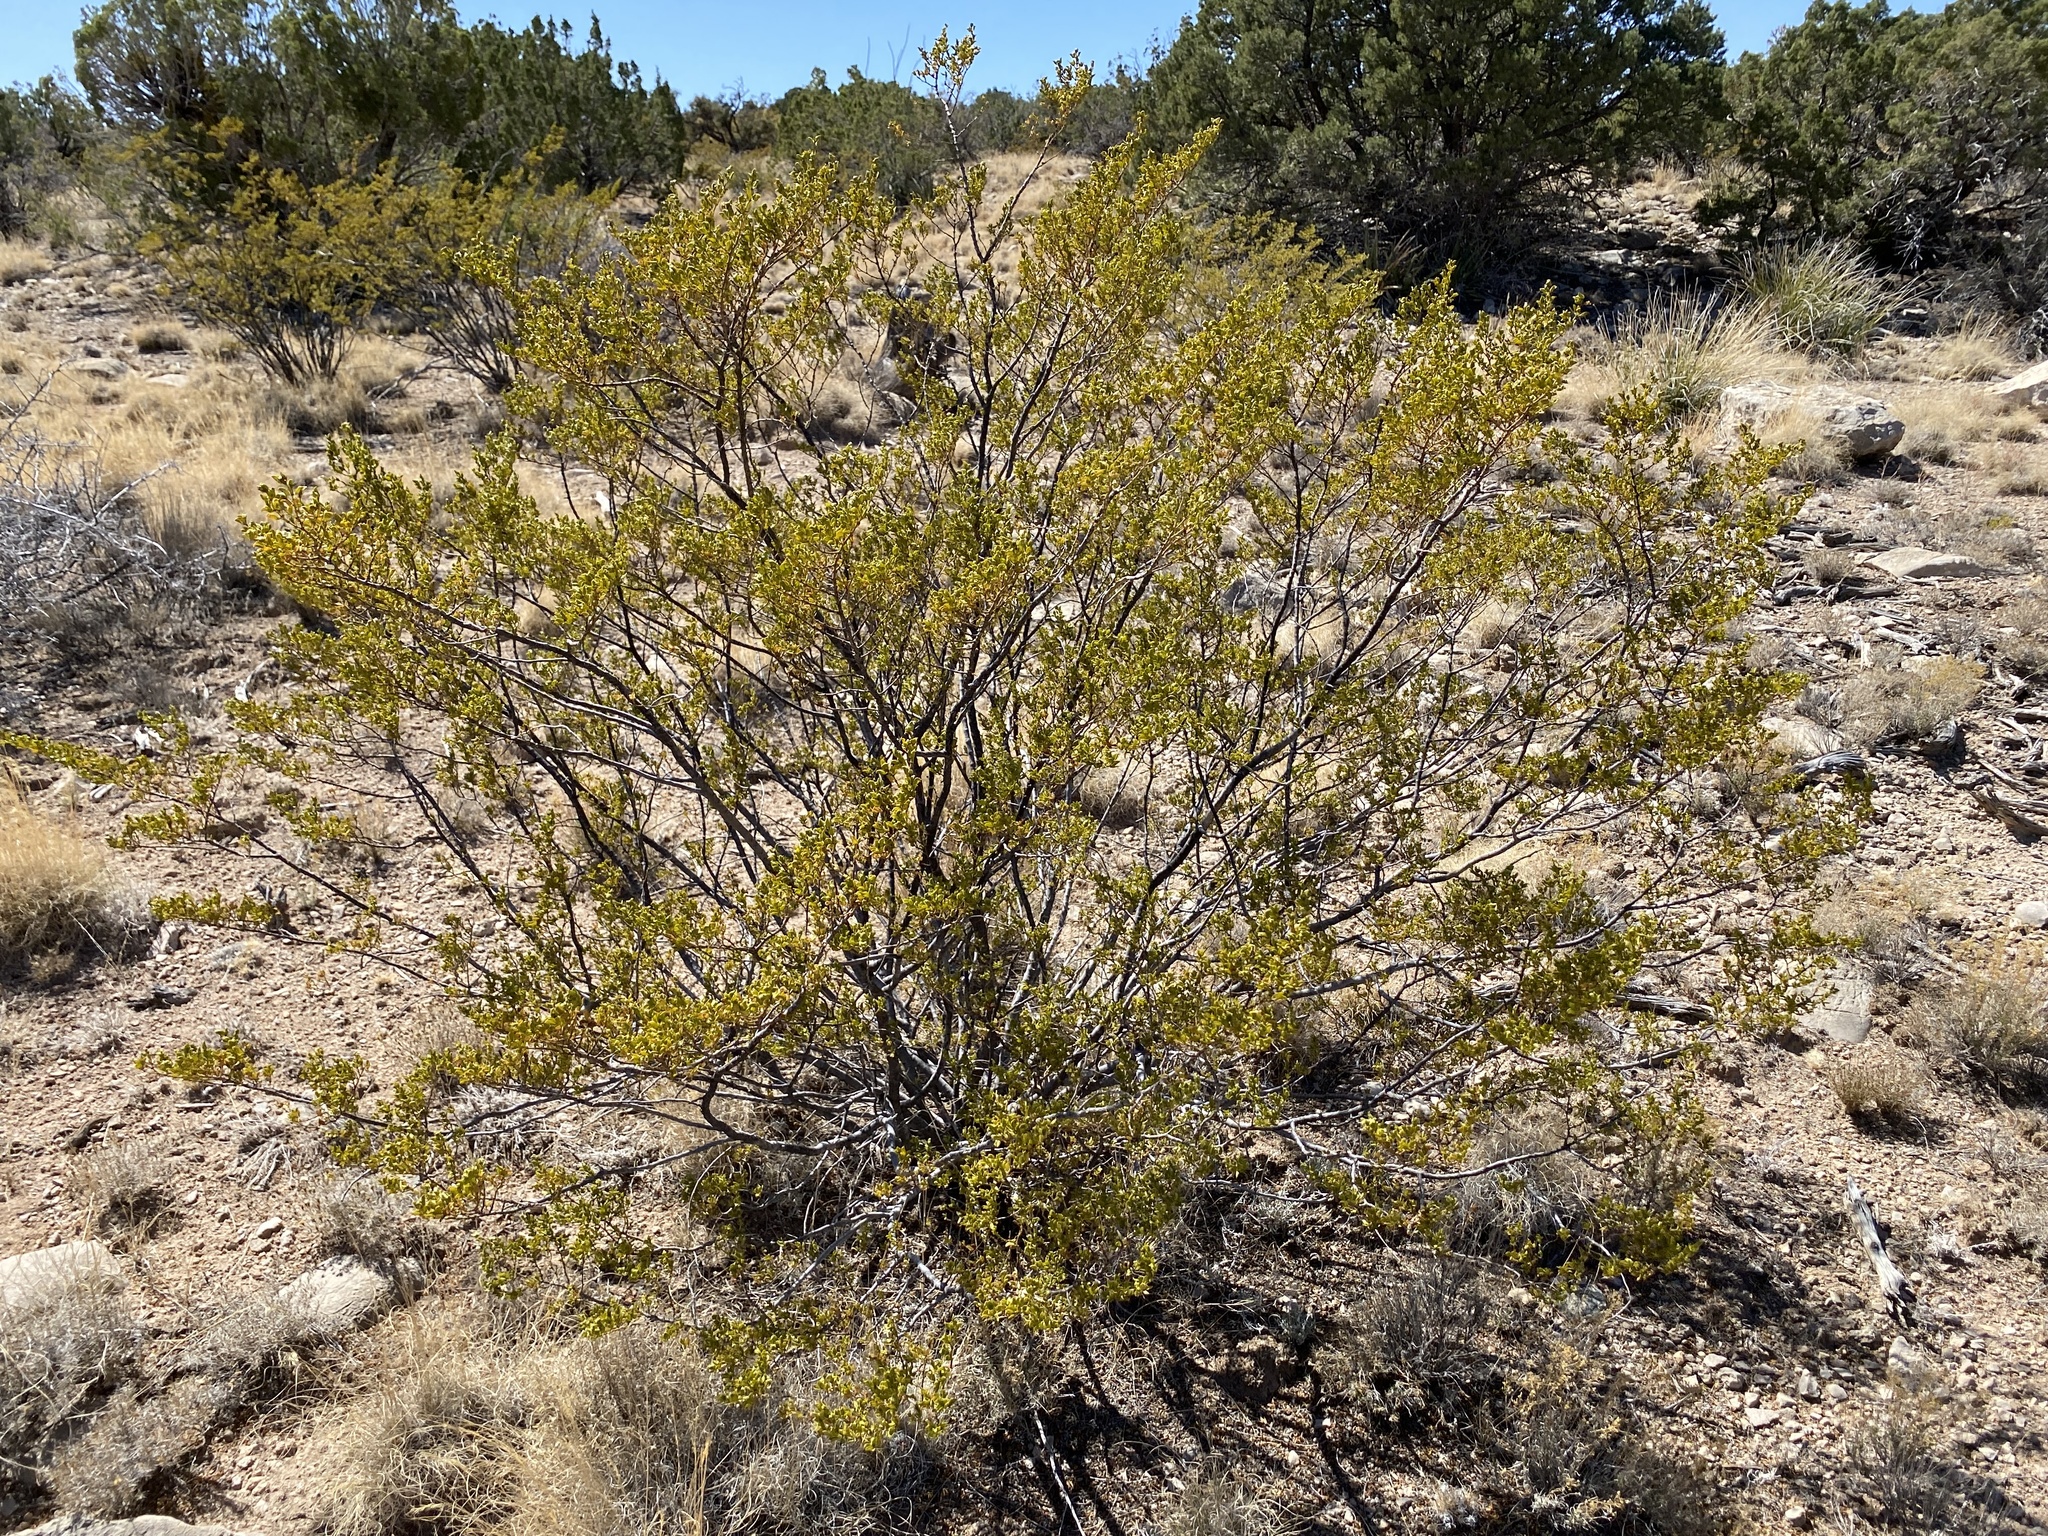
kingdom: Plantae
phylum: Tracheophyta
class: Magnoliopsida
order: Zygophyllales
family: Zygophyllaceae
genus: Larrea
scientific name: Larrea tridentata
